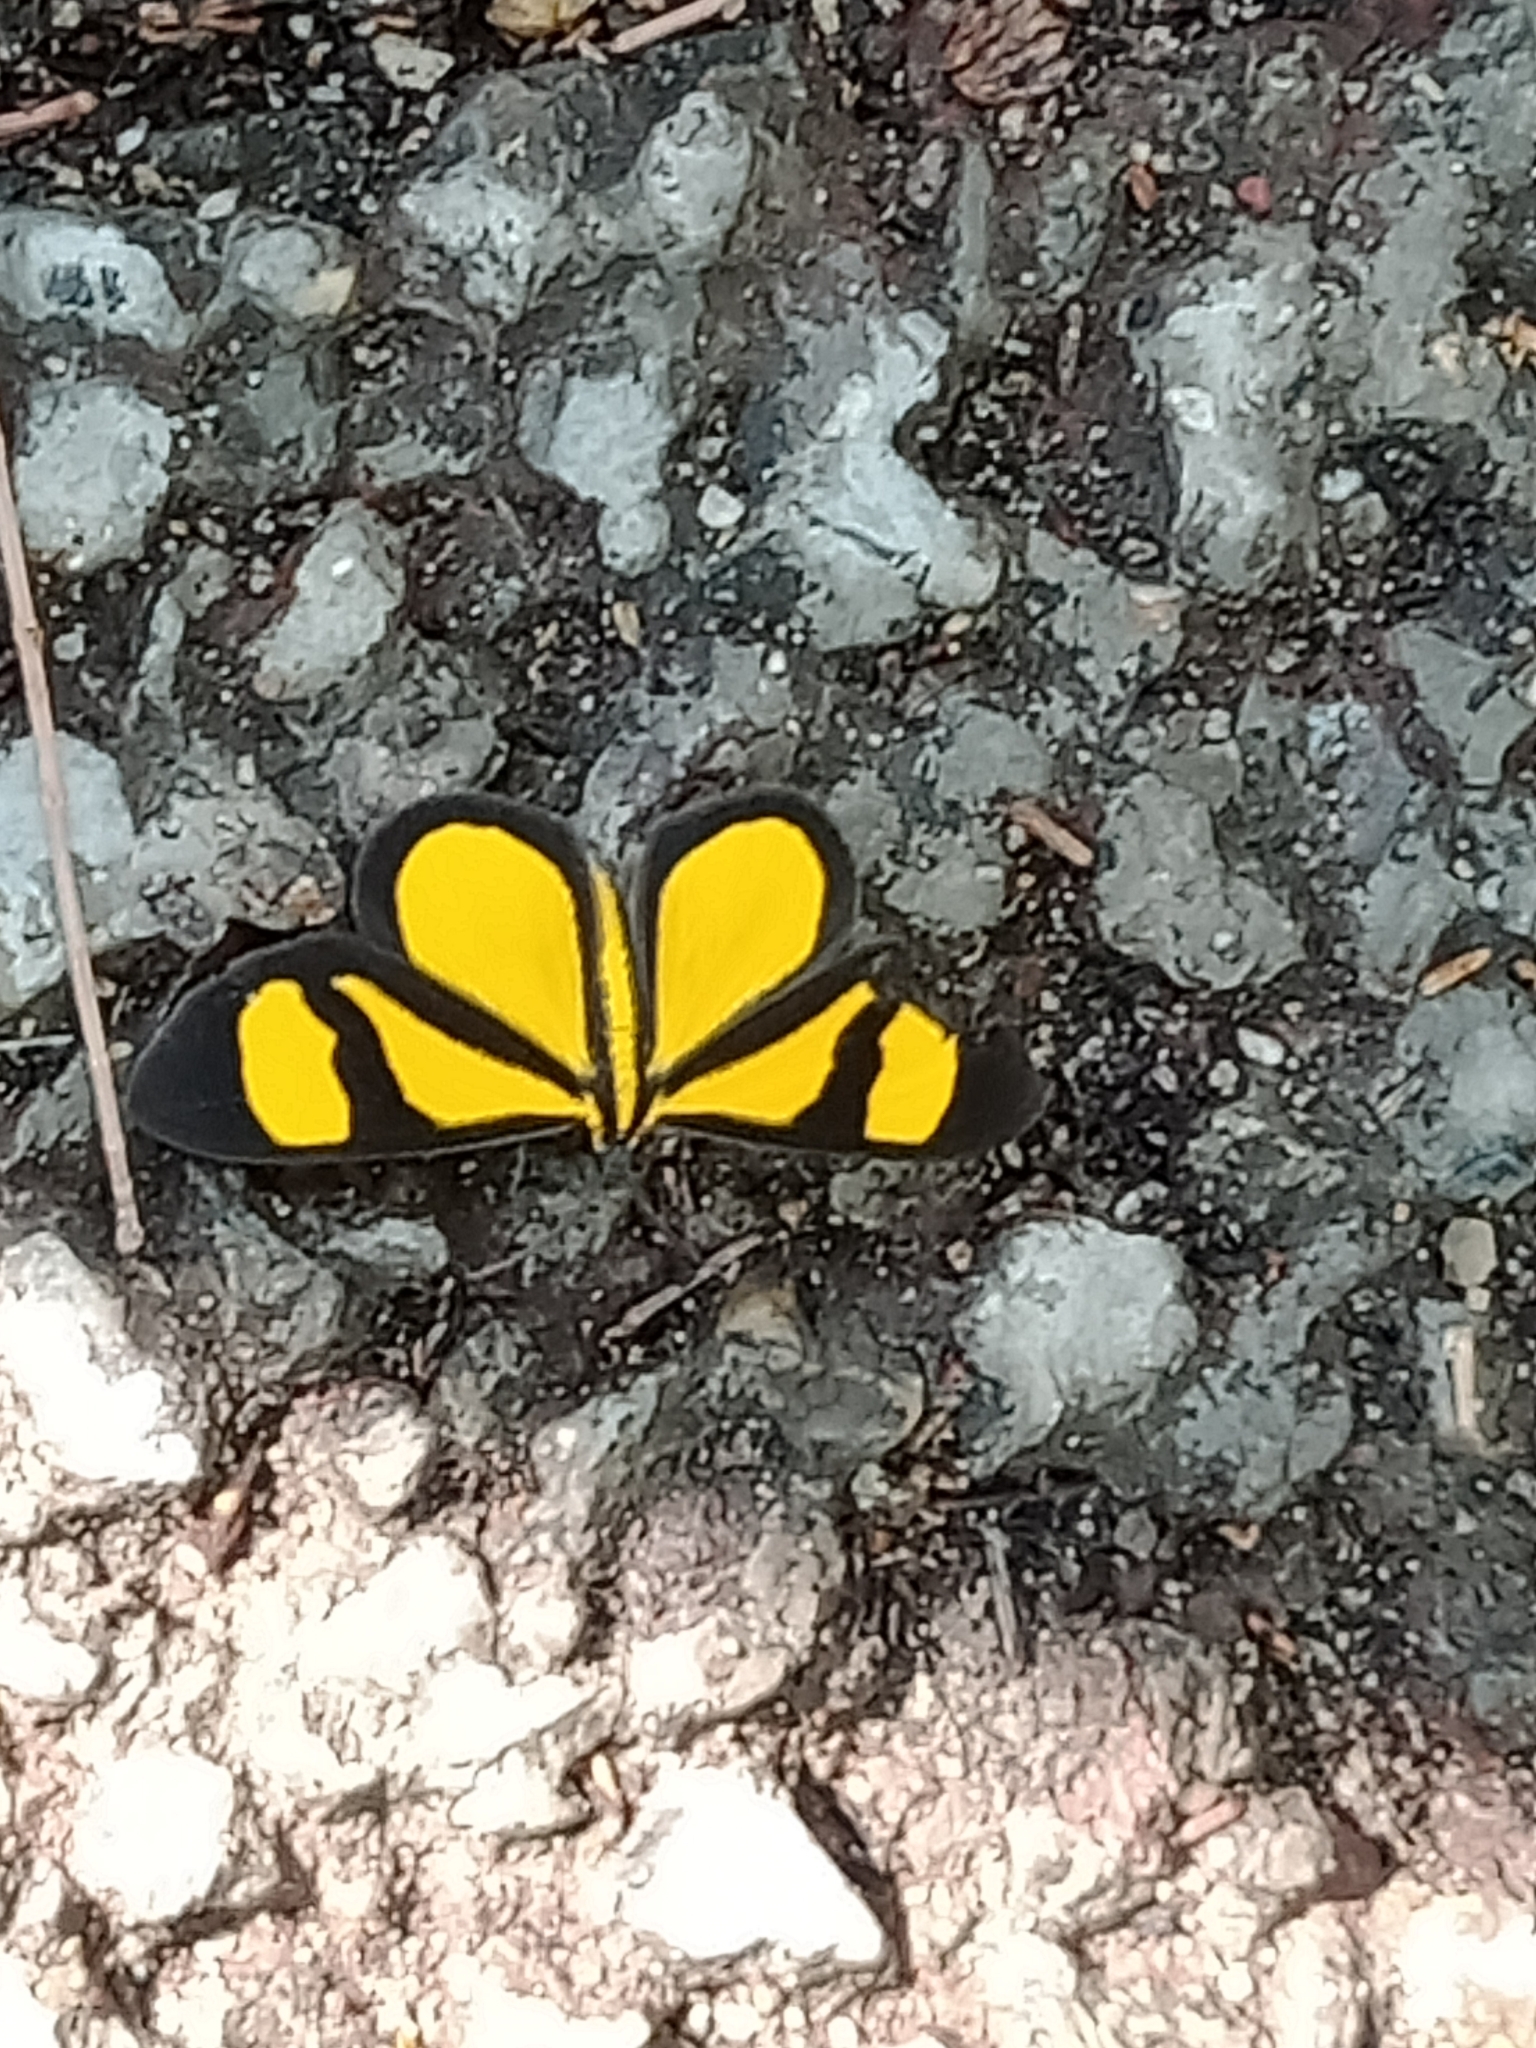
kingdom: Animalia
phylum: Arthropoda
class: Insecta
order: Lepidoptera
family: Geometridae
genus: Smicropus
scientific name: Smicropus laeta
